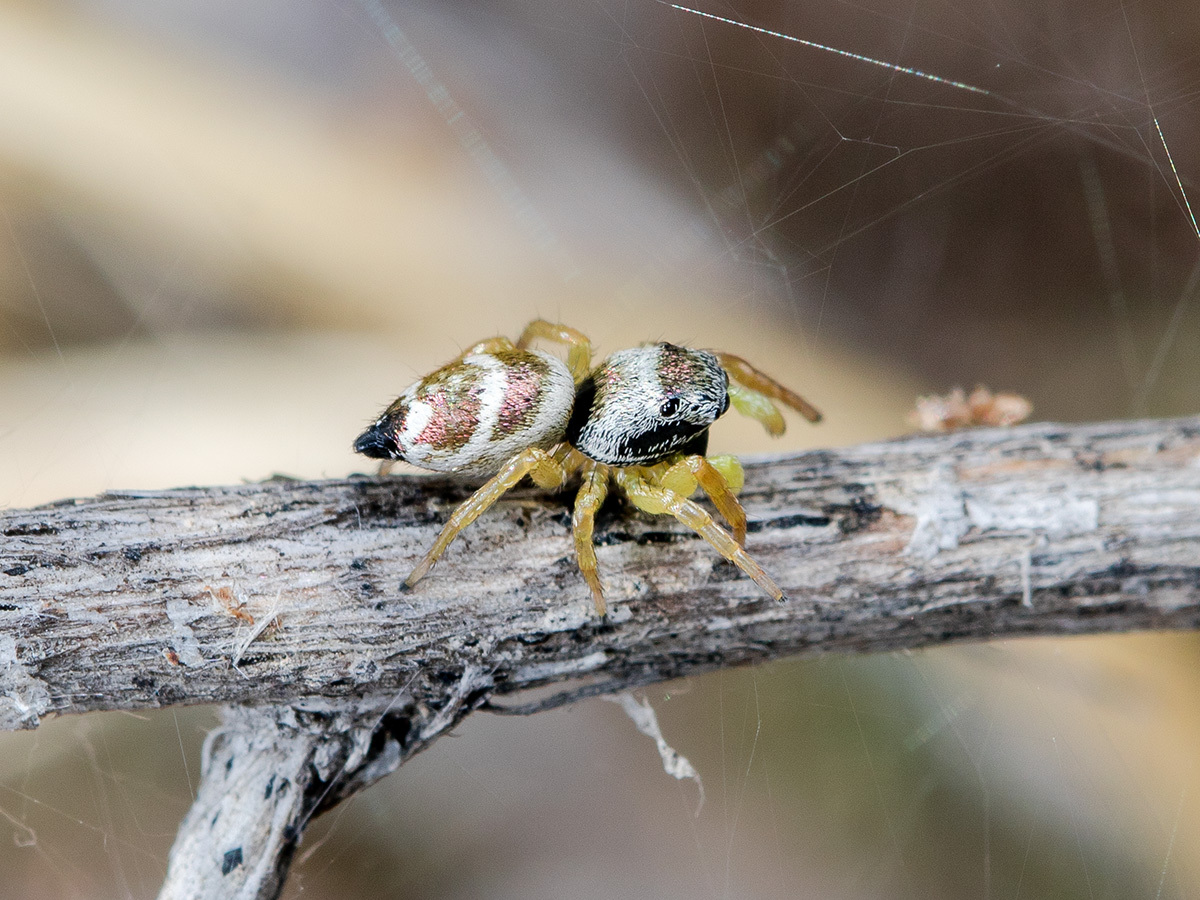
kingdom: Animalia
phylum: Arthropoda
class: Arachnida
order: Araneae
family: Salticidae
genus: Heliophanus
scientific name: Heliophanus chovdensis
